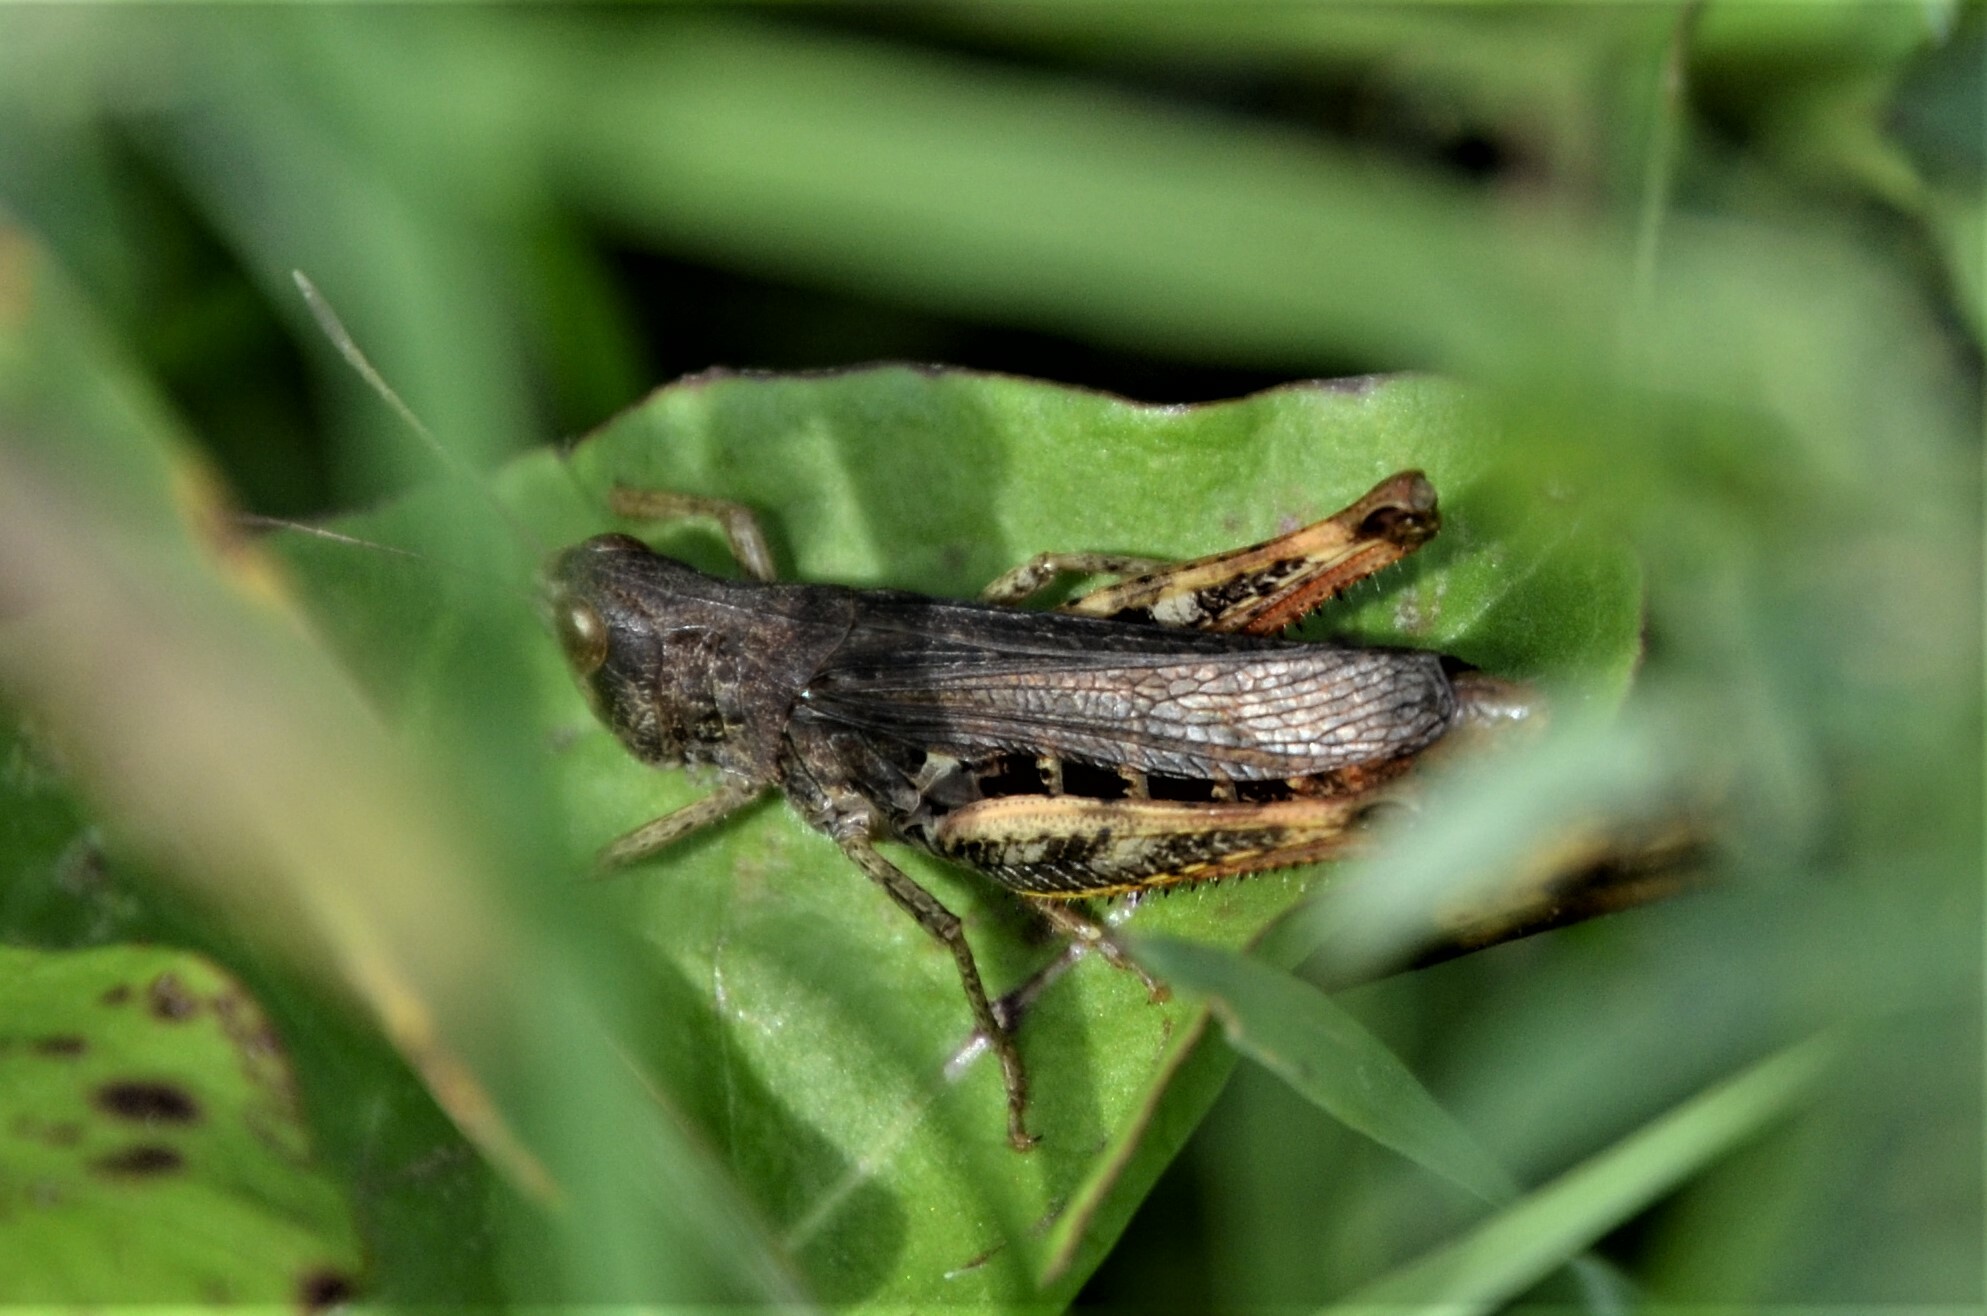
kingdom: Animalia
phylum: Arthropoda
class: Insecta
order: Orthoptera
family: Acrididae
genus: Gomphocerippus
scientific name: Gomphocerippus rufus
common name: Rufous grasshopper
